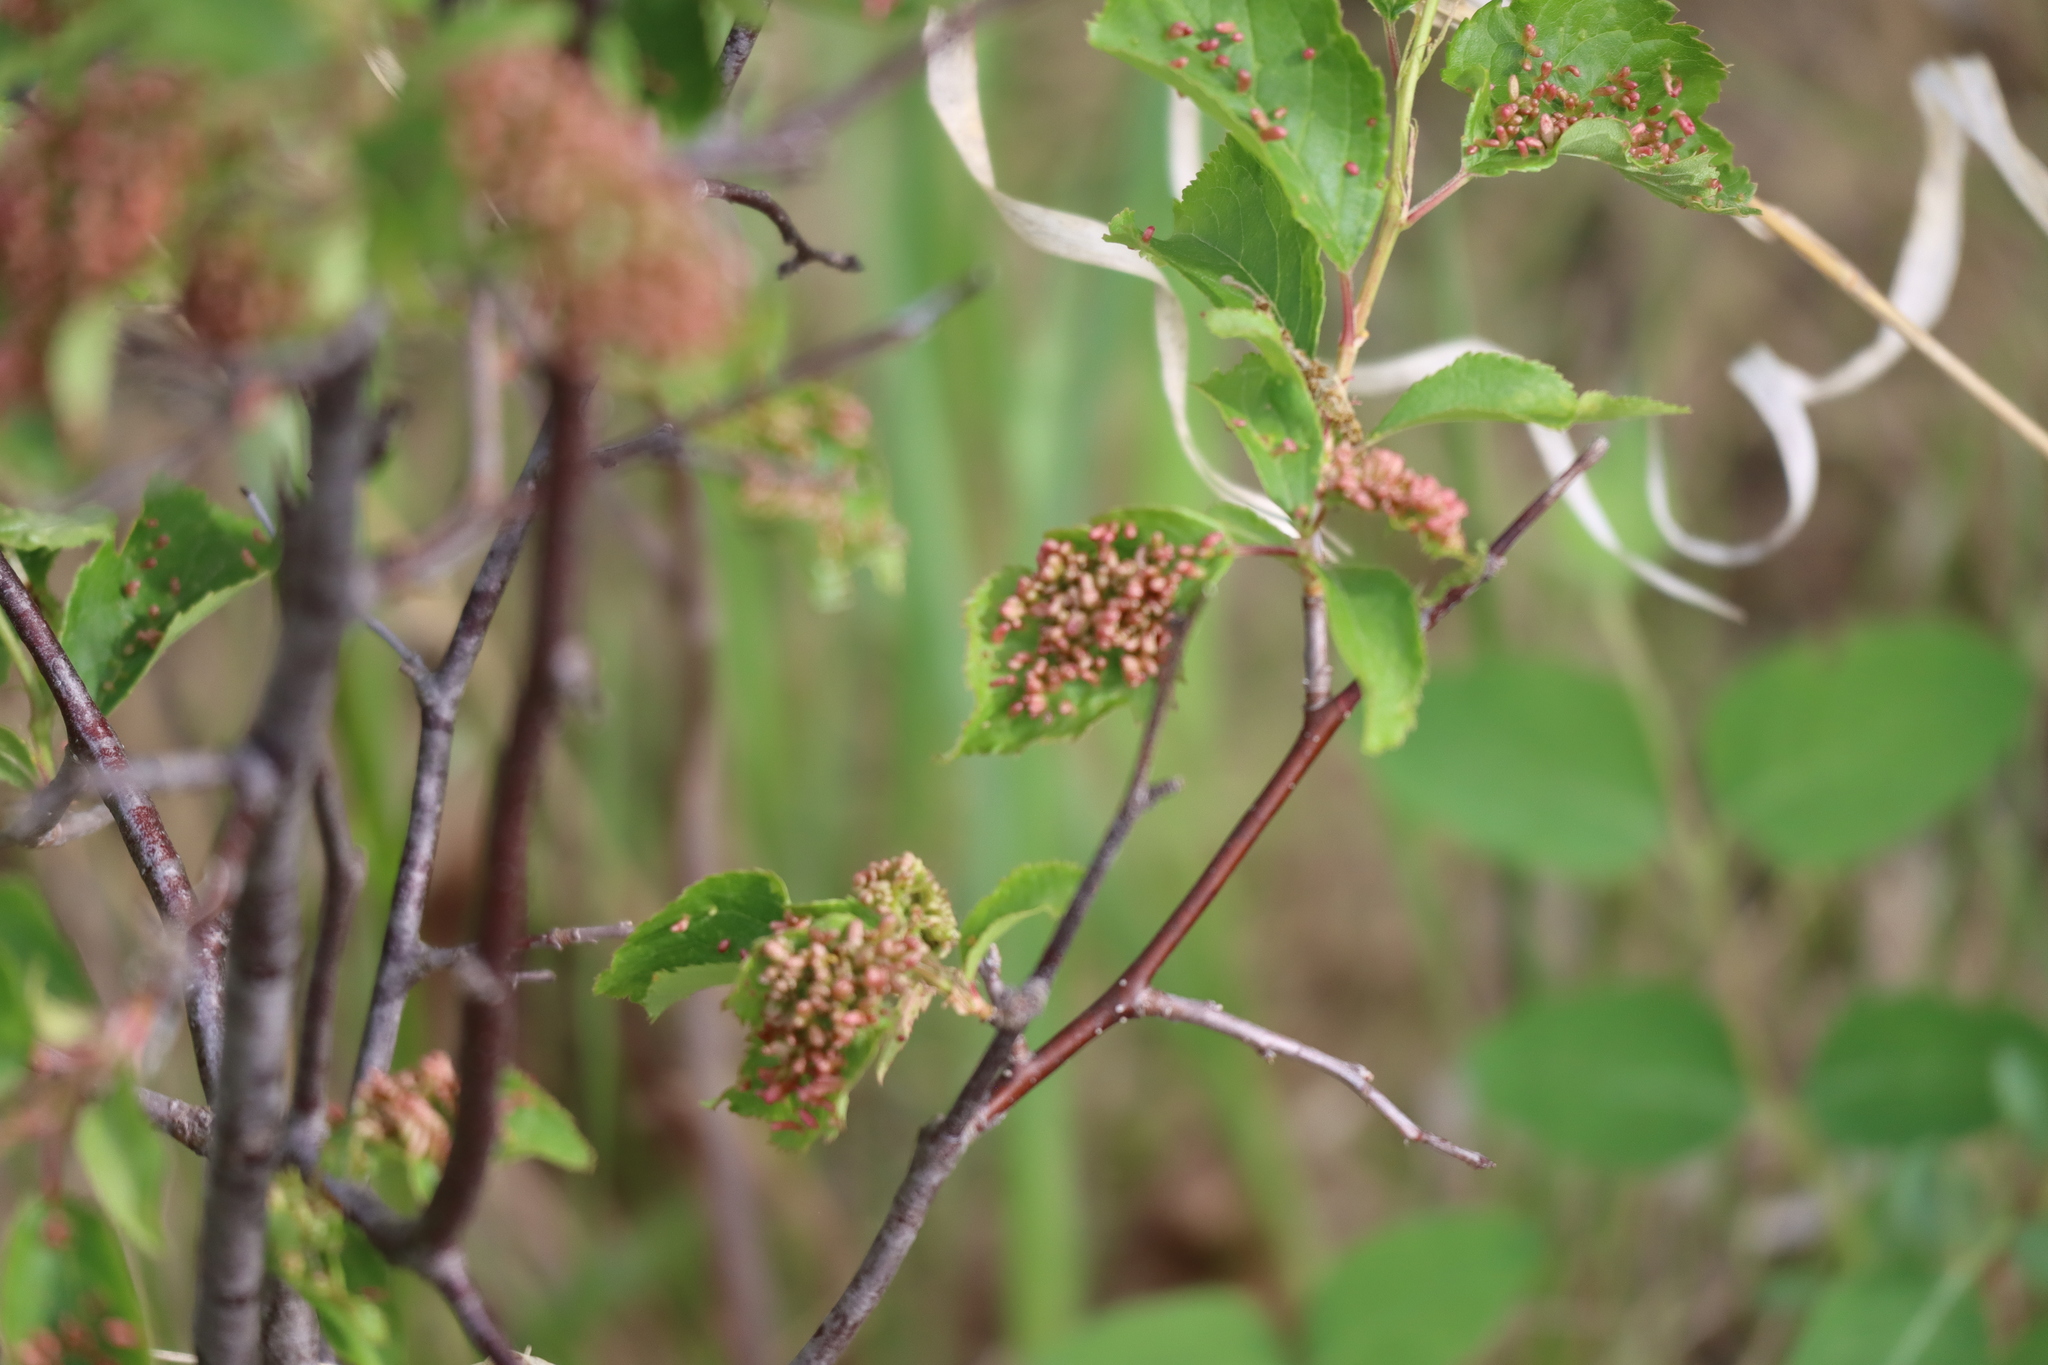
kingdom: Animalia
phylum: Arthropoda
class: Arachnida
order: Trombidiformes
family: Eriophyidae
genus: Eriophyes
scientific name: Eriophyes emarginatae
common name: Plum leaf gall mite
